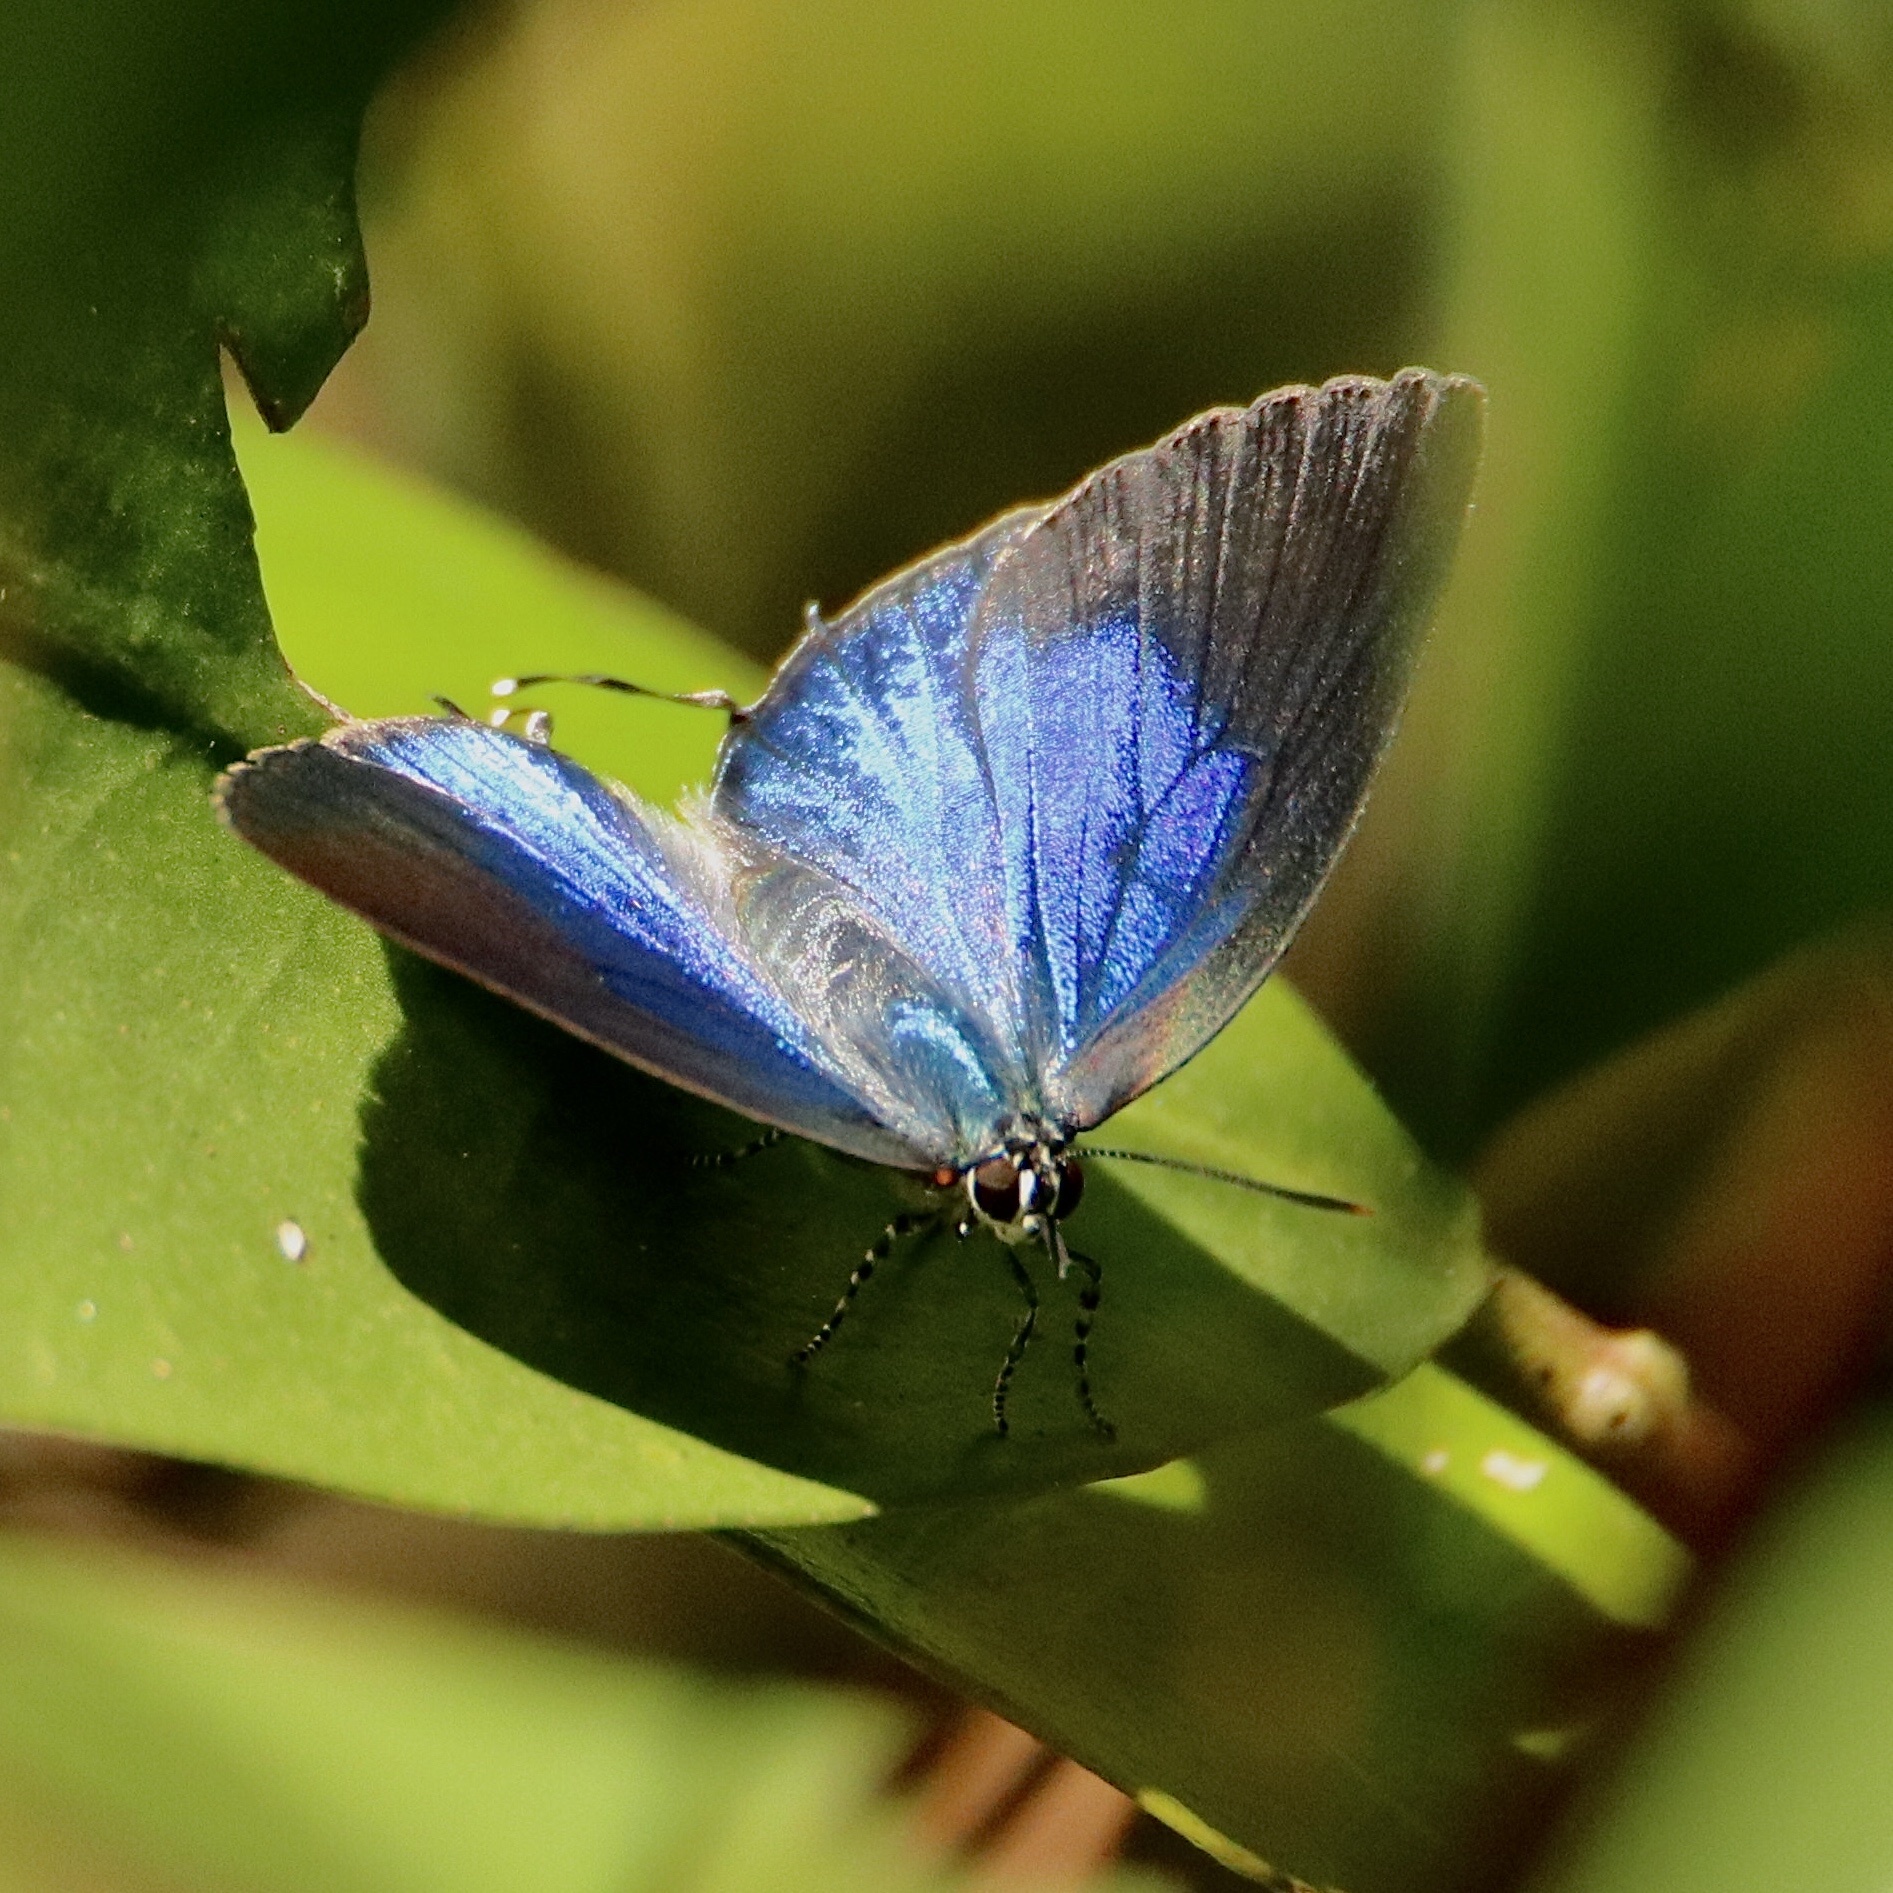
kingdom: Animalia
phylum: Arthropoda
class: Insecta
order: Lepidoptera
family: Lycaenidae
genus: Panthiades
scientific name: Panthiades bitias
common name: Bitias hairstreak
